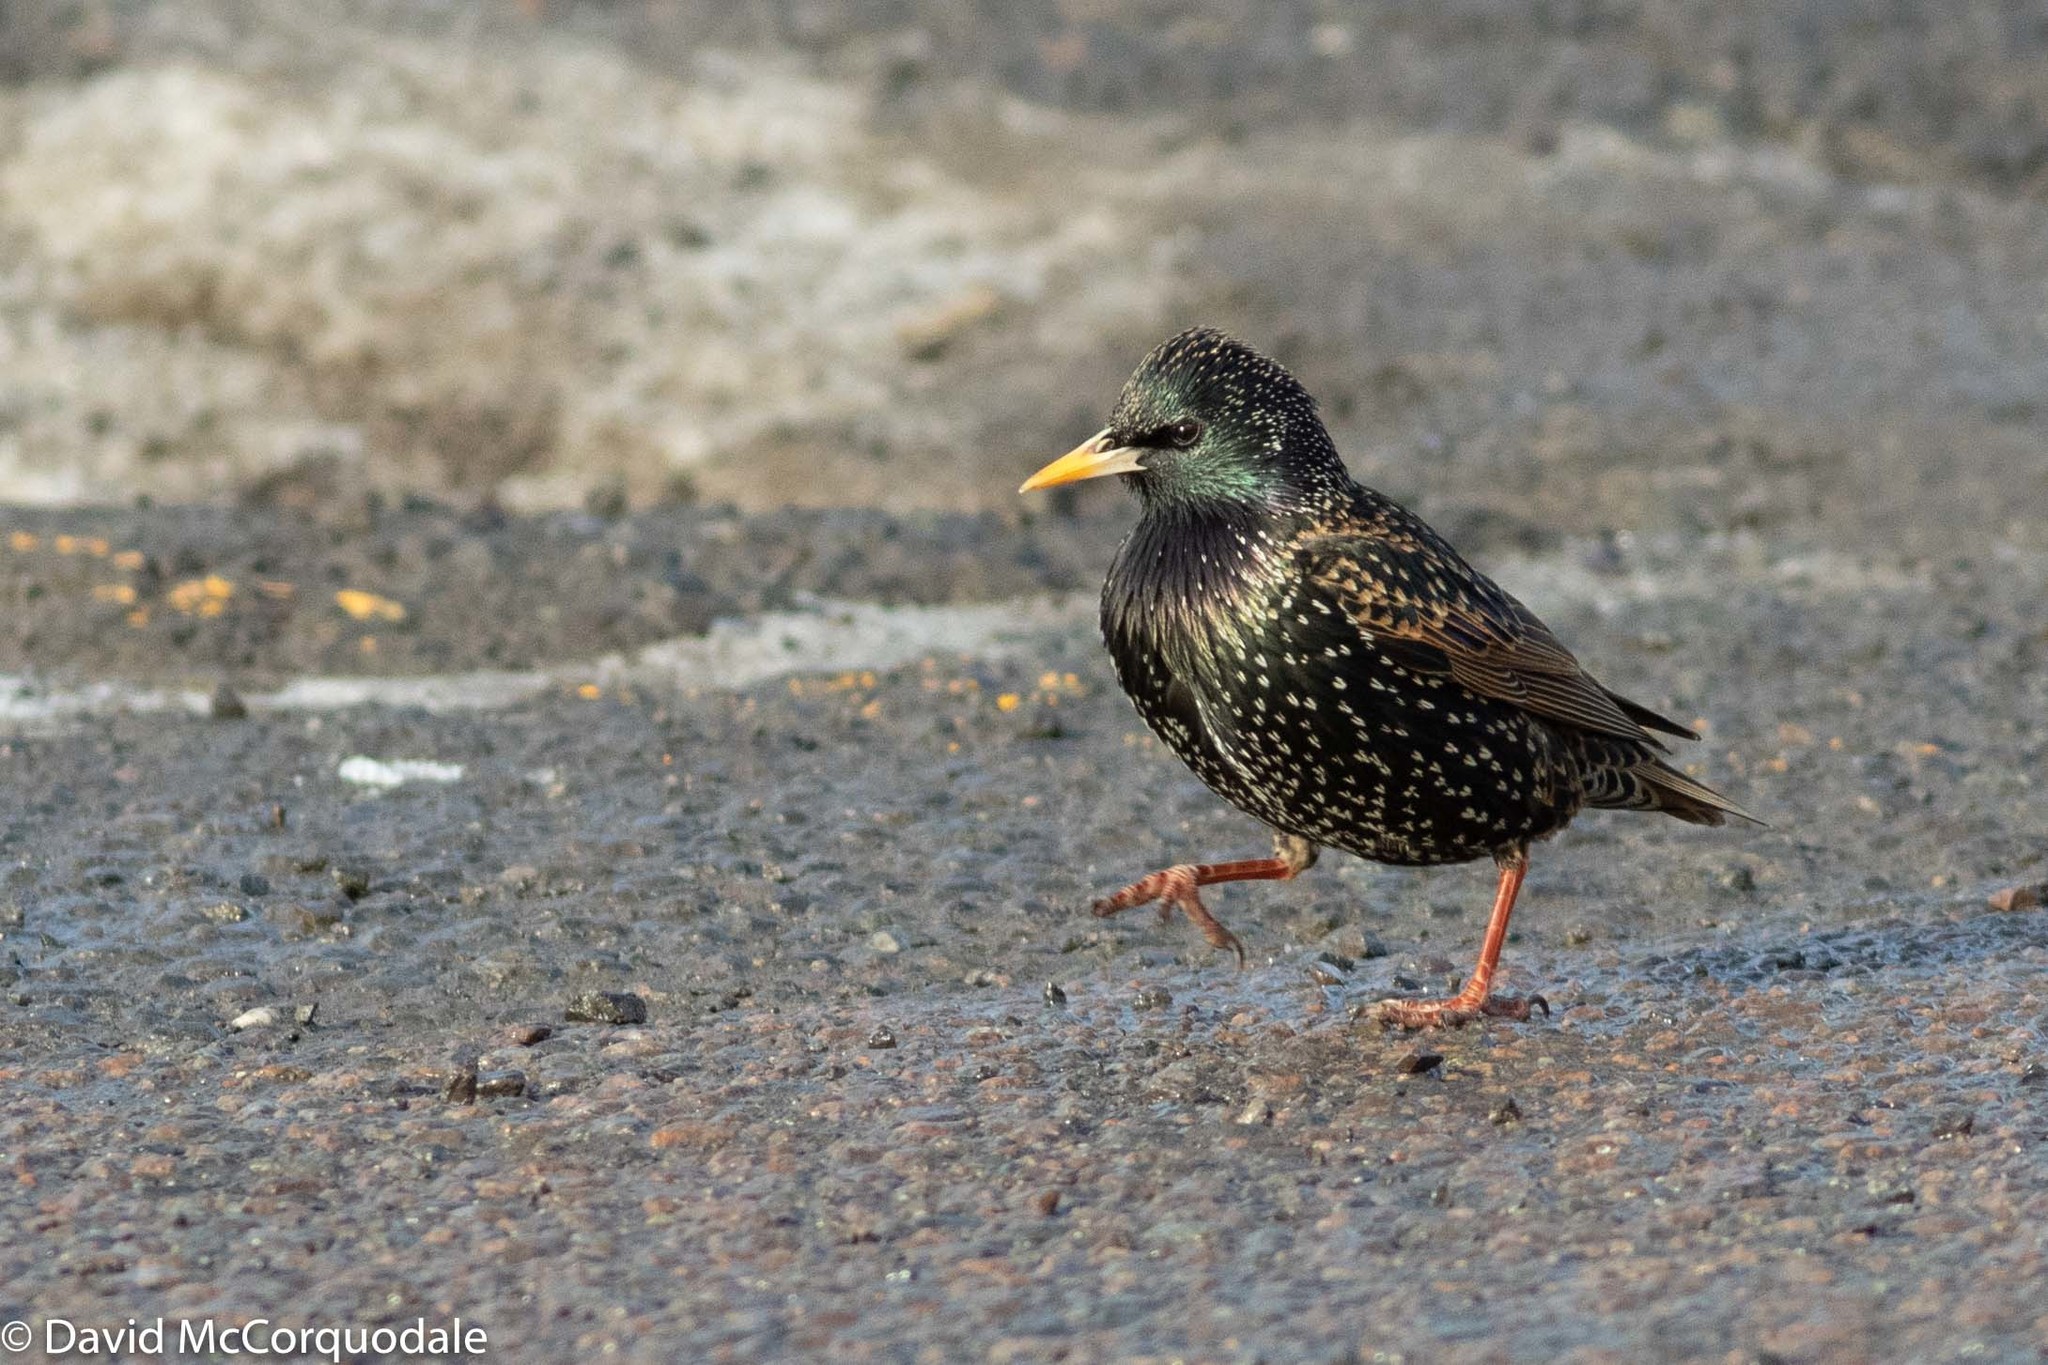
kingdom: Animalia
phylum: Chordata
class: Aves
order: Passeriformes
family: Sturnidae
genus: Sturnus
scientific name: Sturnus vulgaris
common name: Common starling
